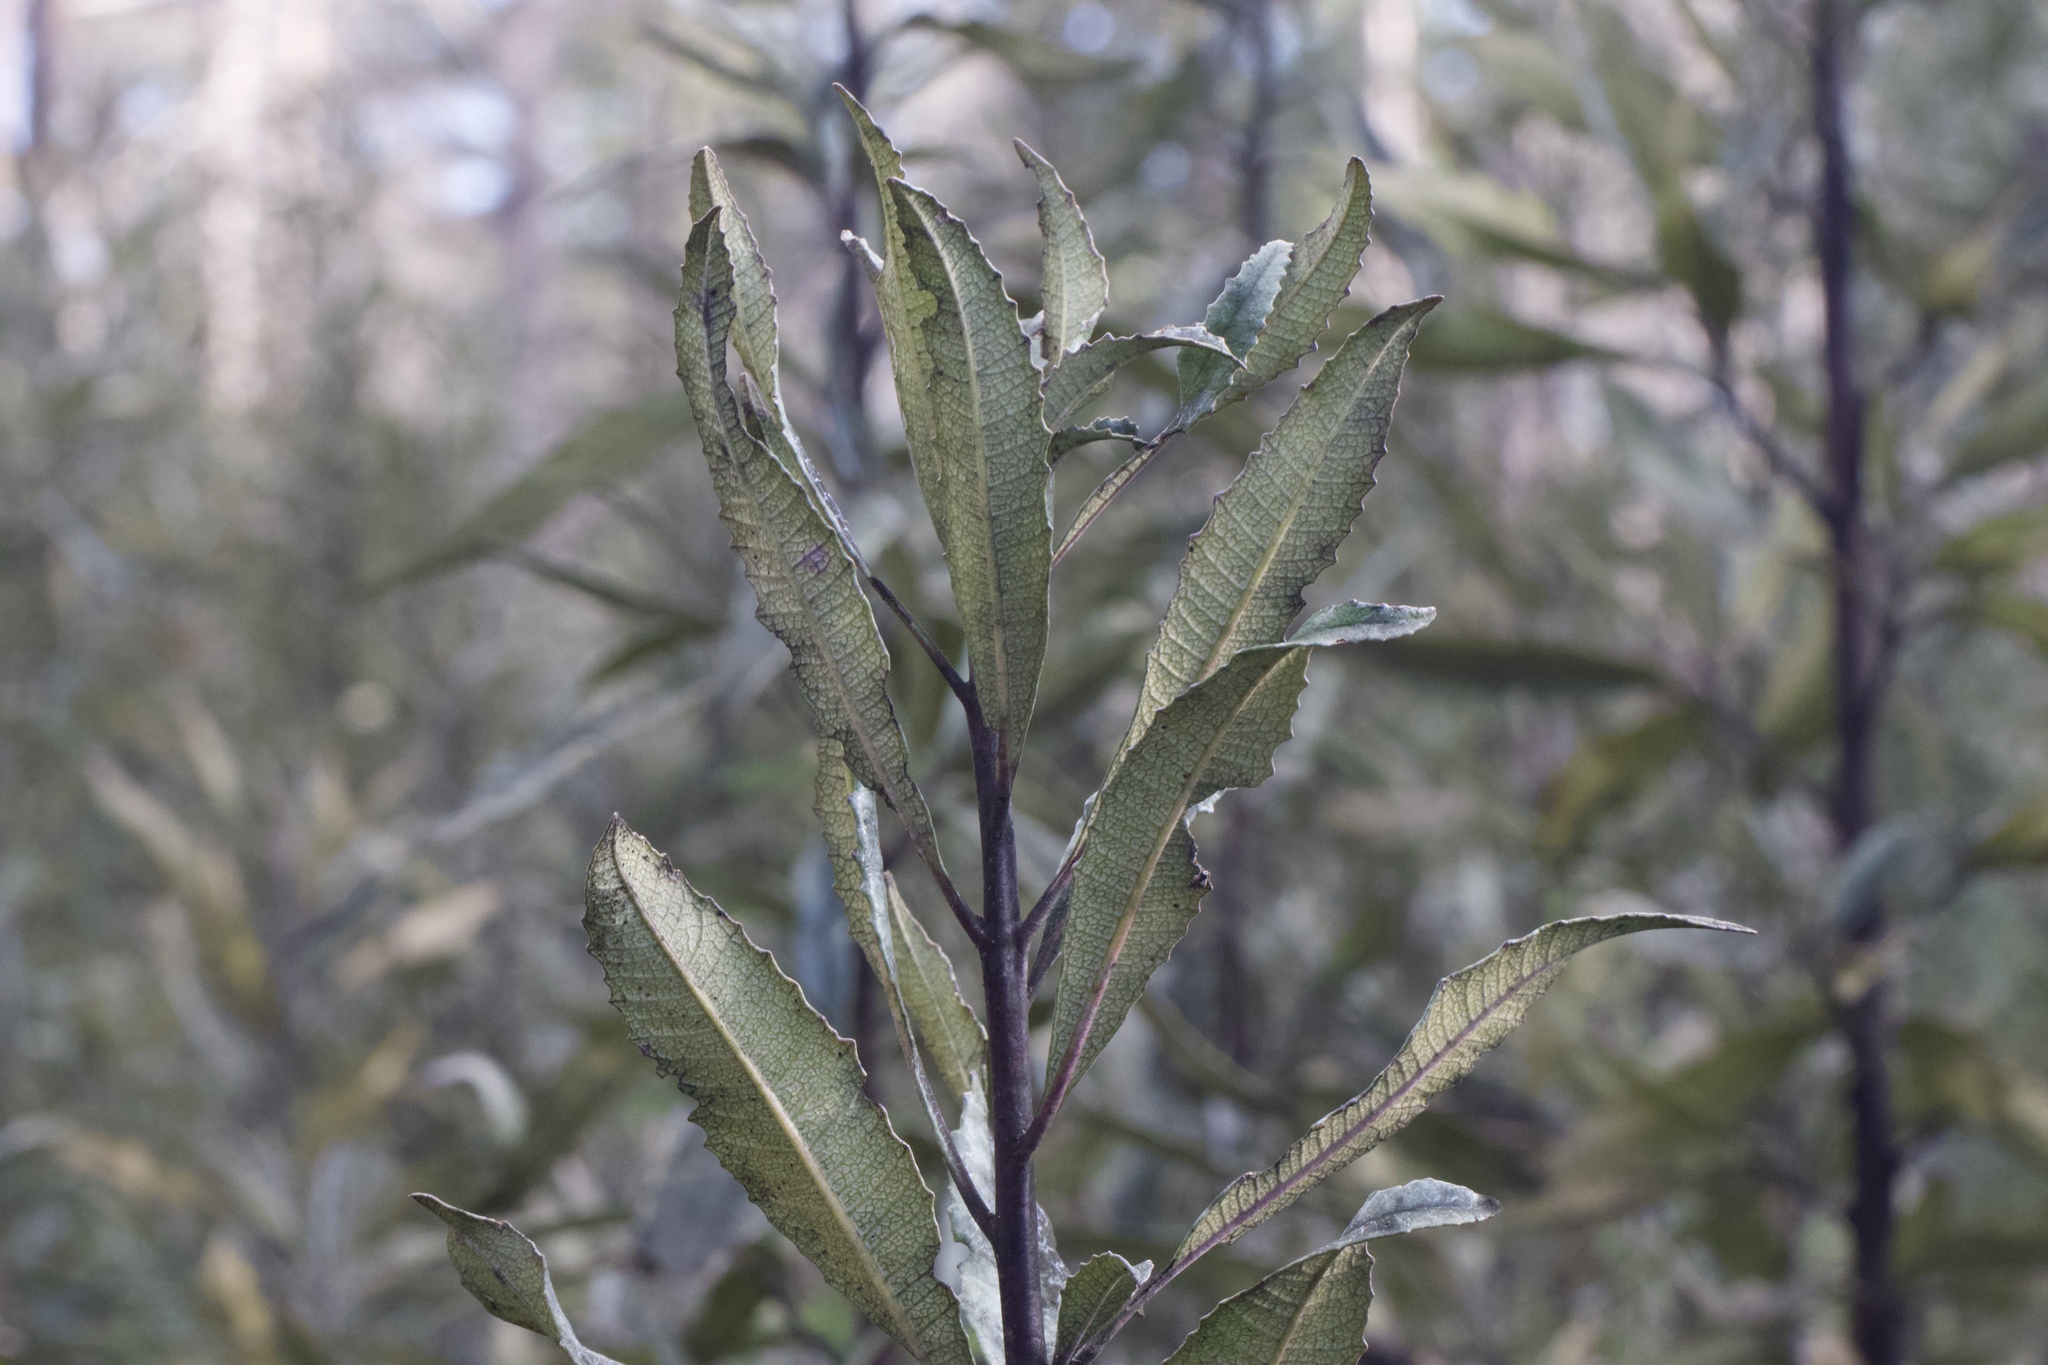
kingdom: Plantae
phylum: Tracheophyta
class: Magnoliopsida
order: Boraginales
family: Namaceae
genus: Eriodictyon
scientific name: Eriodictyon californicum
